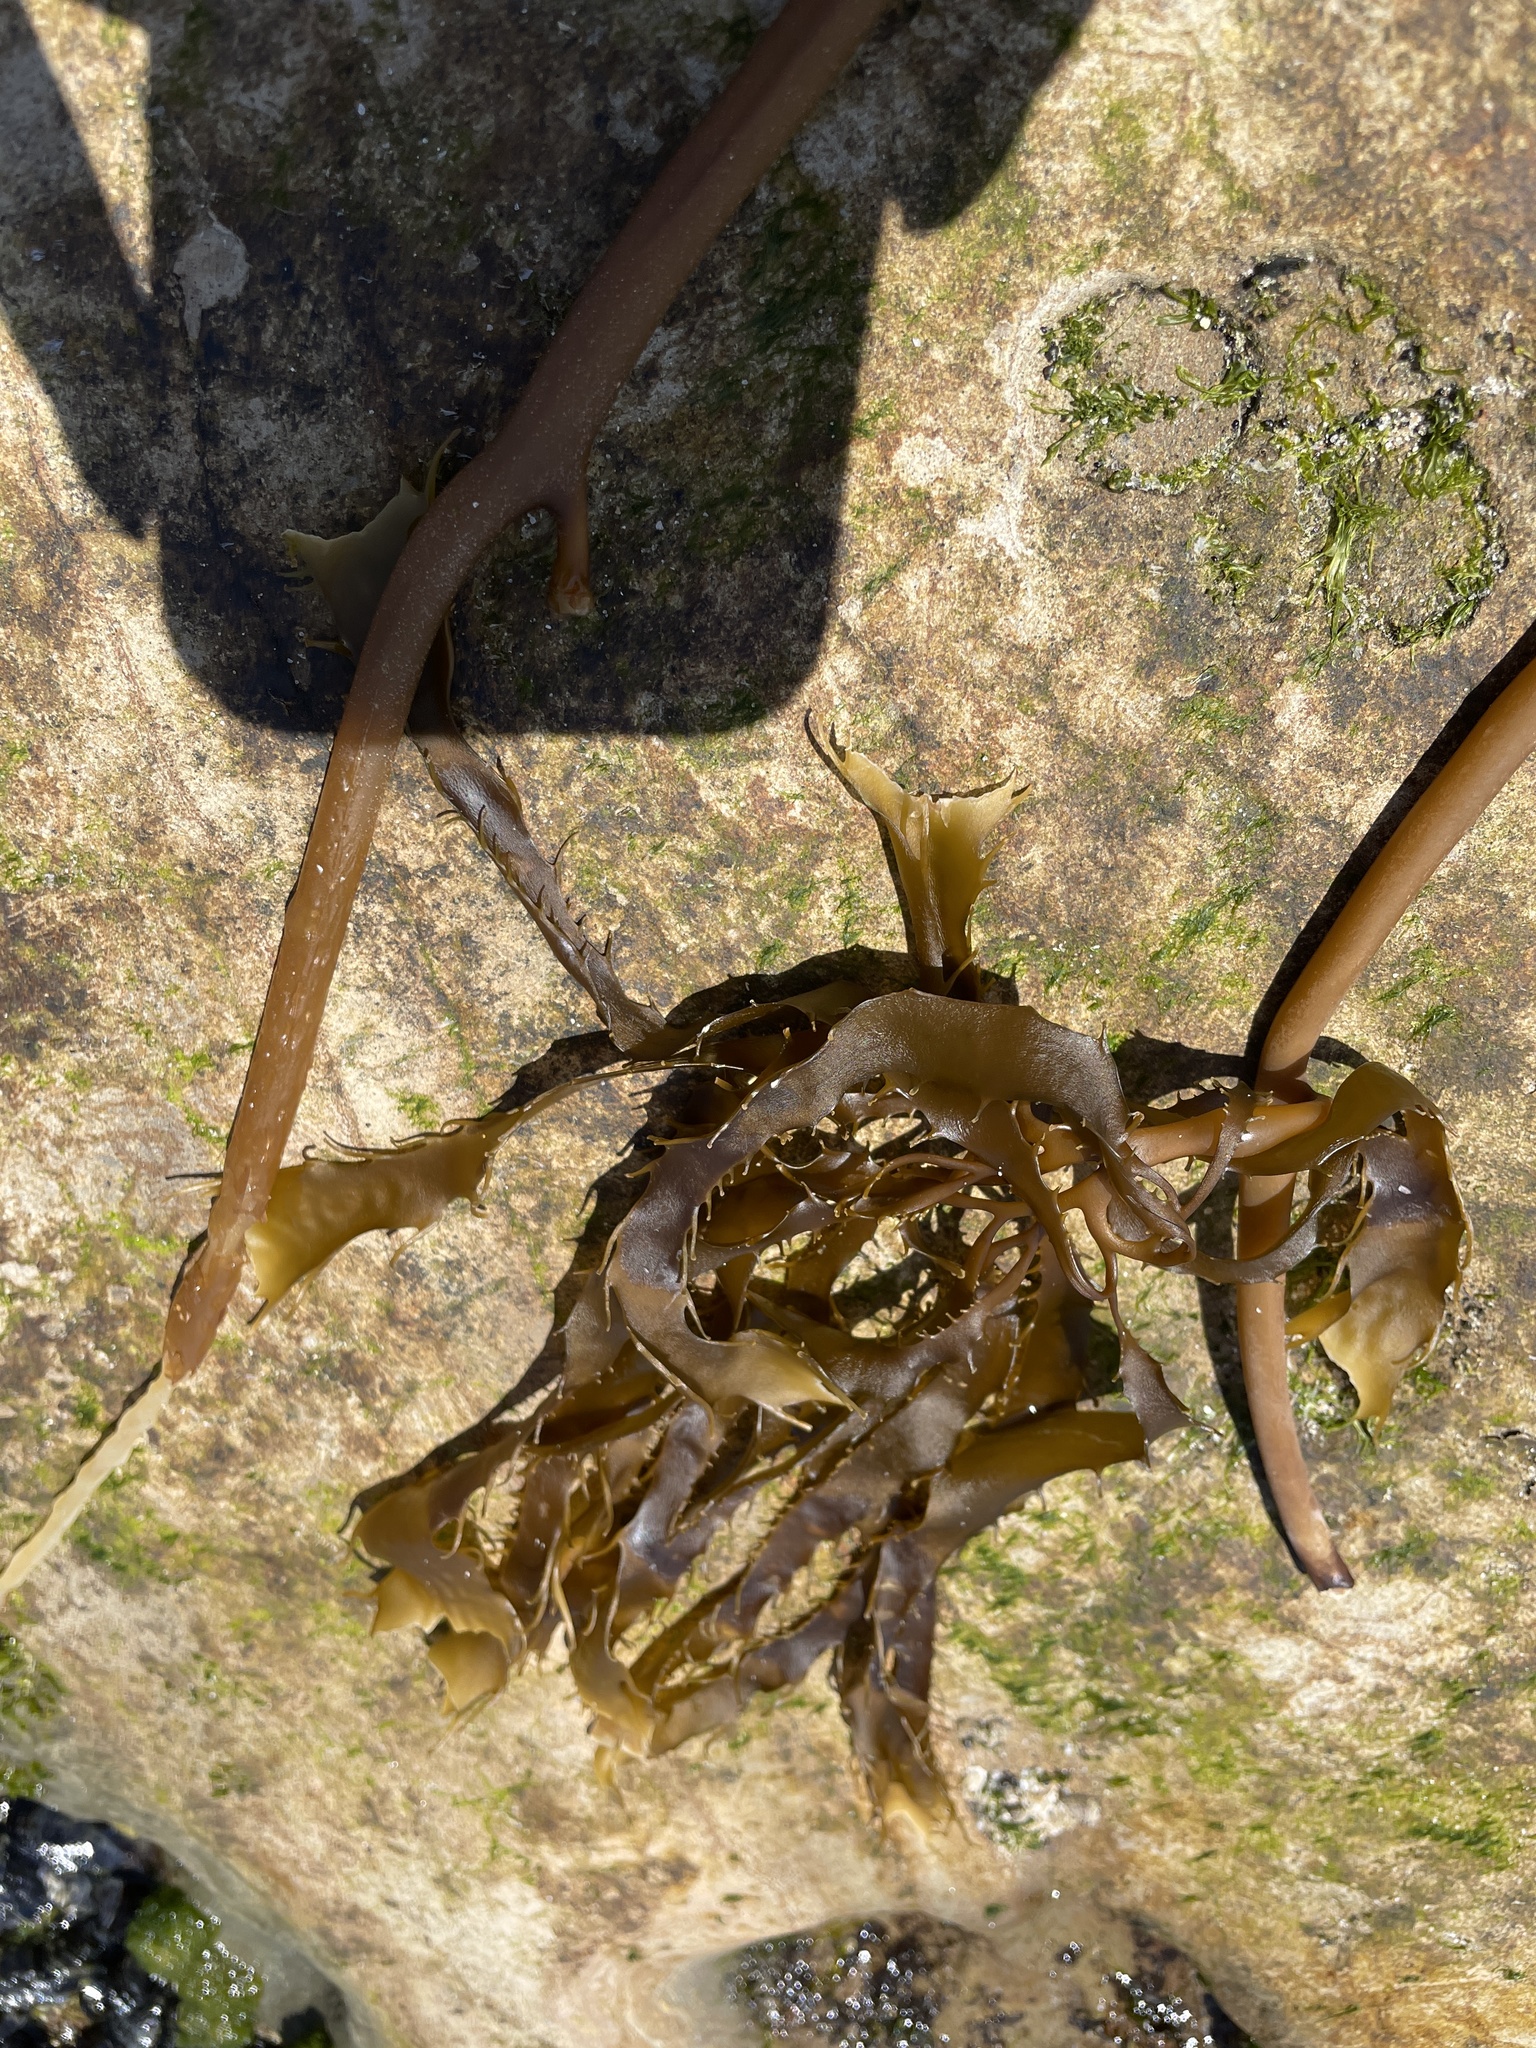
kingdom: Chromista
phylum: Ochrophyta
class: Phaeophyceae
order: Laminariales
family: Laminariaceae
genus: Macrocystis
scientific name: Macrocystis pyrifera
